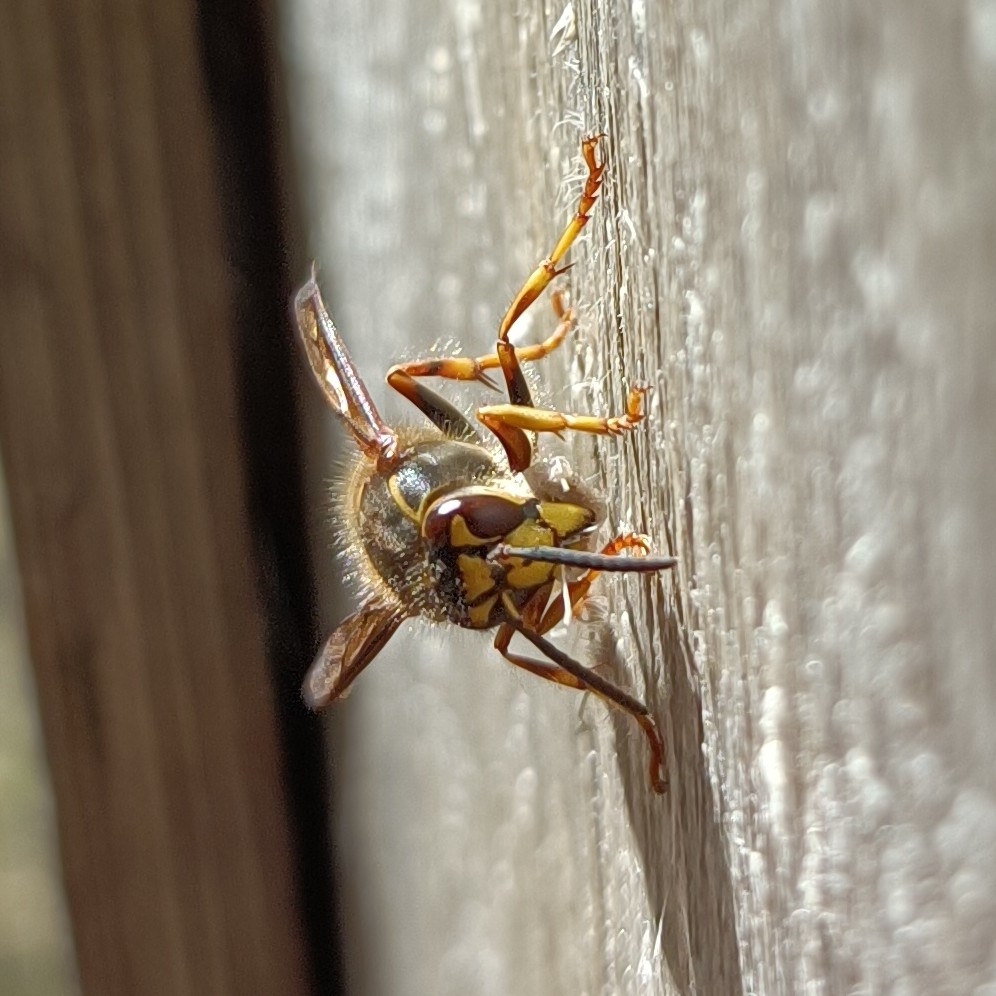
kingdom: Animalia
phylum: Arthropoda
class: Insecta
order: Hymenoptera
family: Vespidae
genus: Dolichovespula
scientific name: Dolichovespula media
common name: Median wasp
